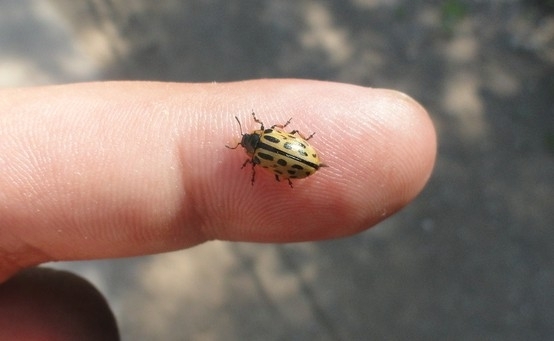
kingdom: Animalia
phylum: Arthropoda
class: Insecta
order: Coleoptera
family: Chrysomelidae
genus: Chrysomela
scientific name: Chrysomela vigintipunctata
